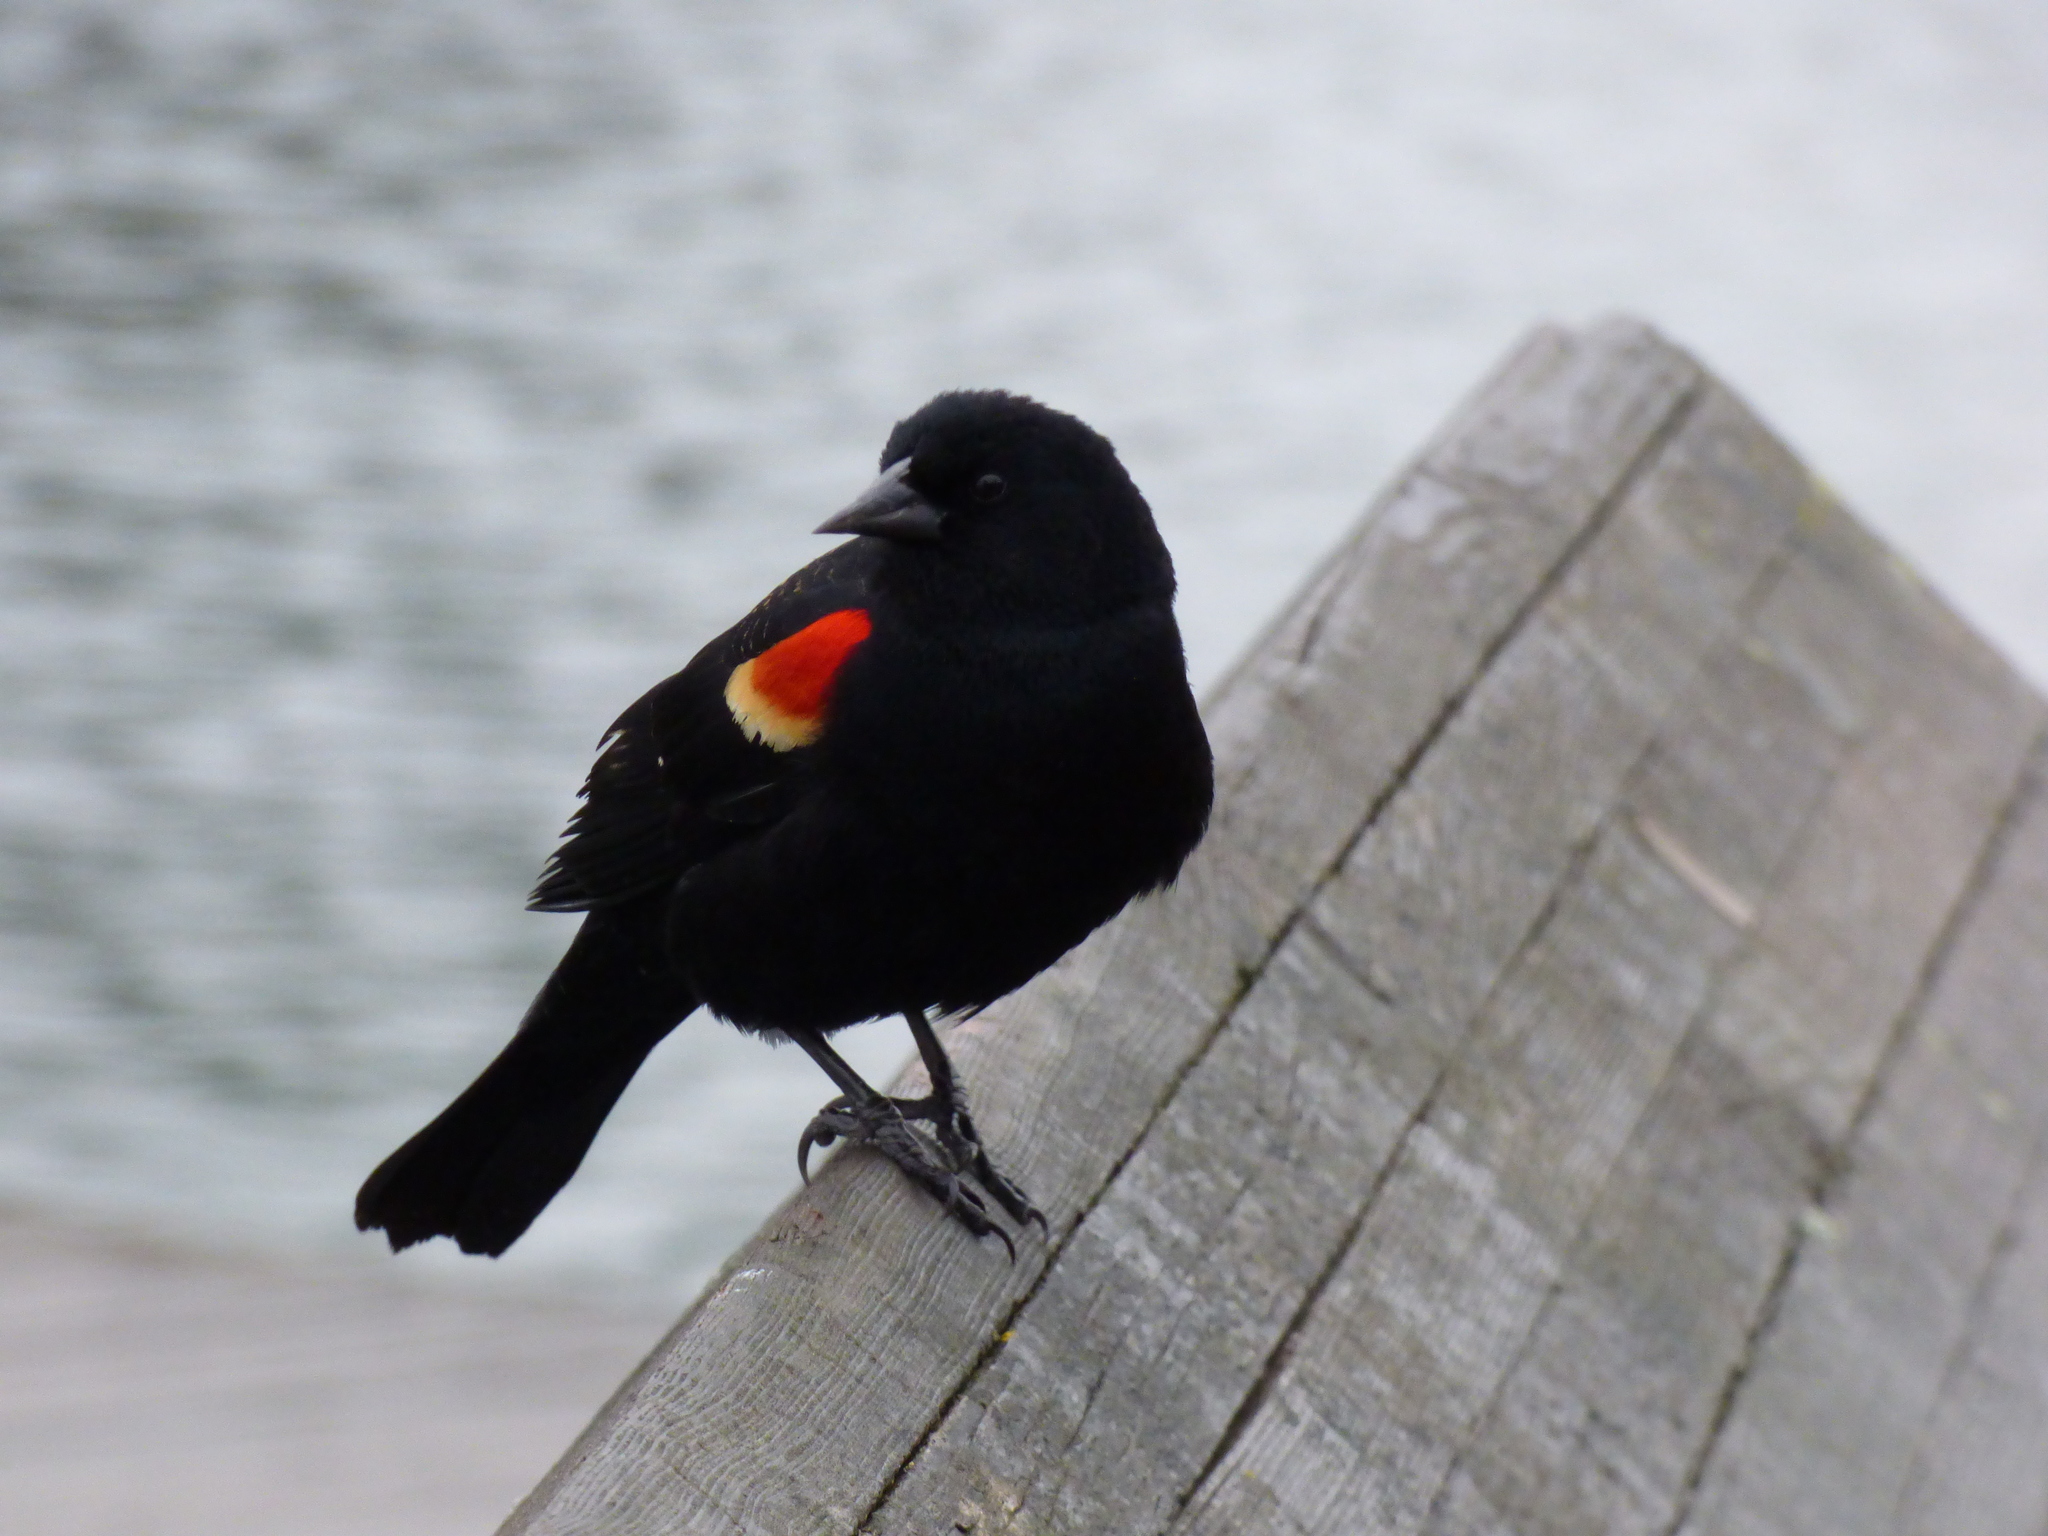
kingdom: Animalia
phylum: Chordata
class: Aves
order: Passeriformes
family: Icteridae
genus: Agelaius
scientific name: Agelaius phoeniceus
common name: Red-winged blackbird
